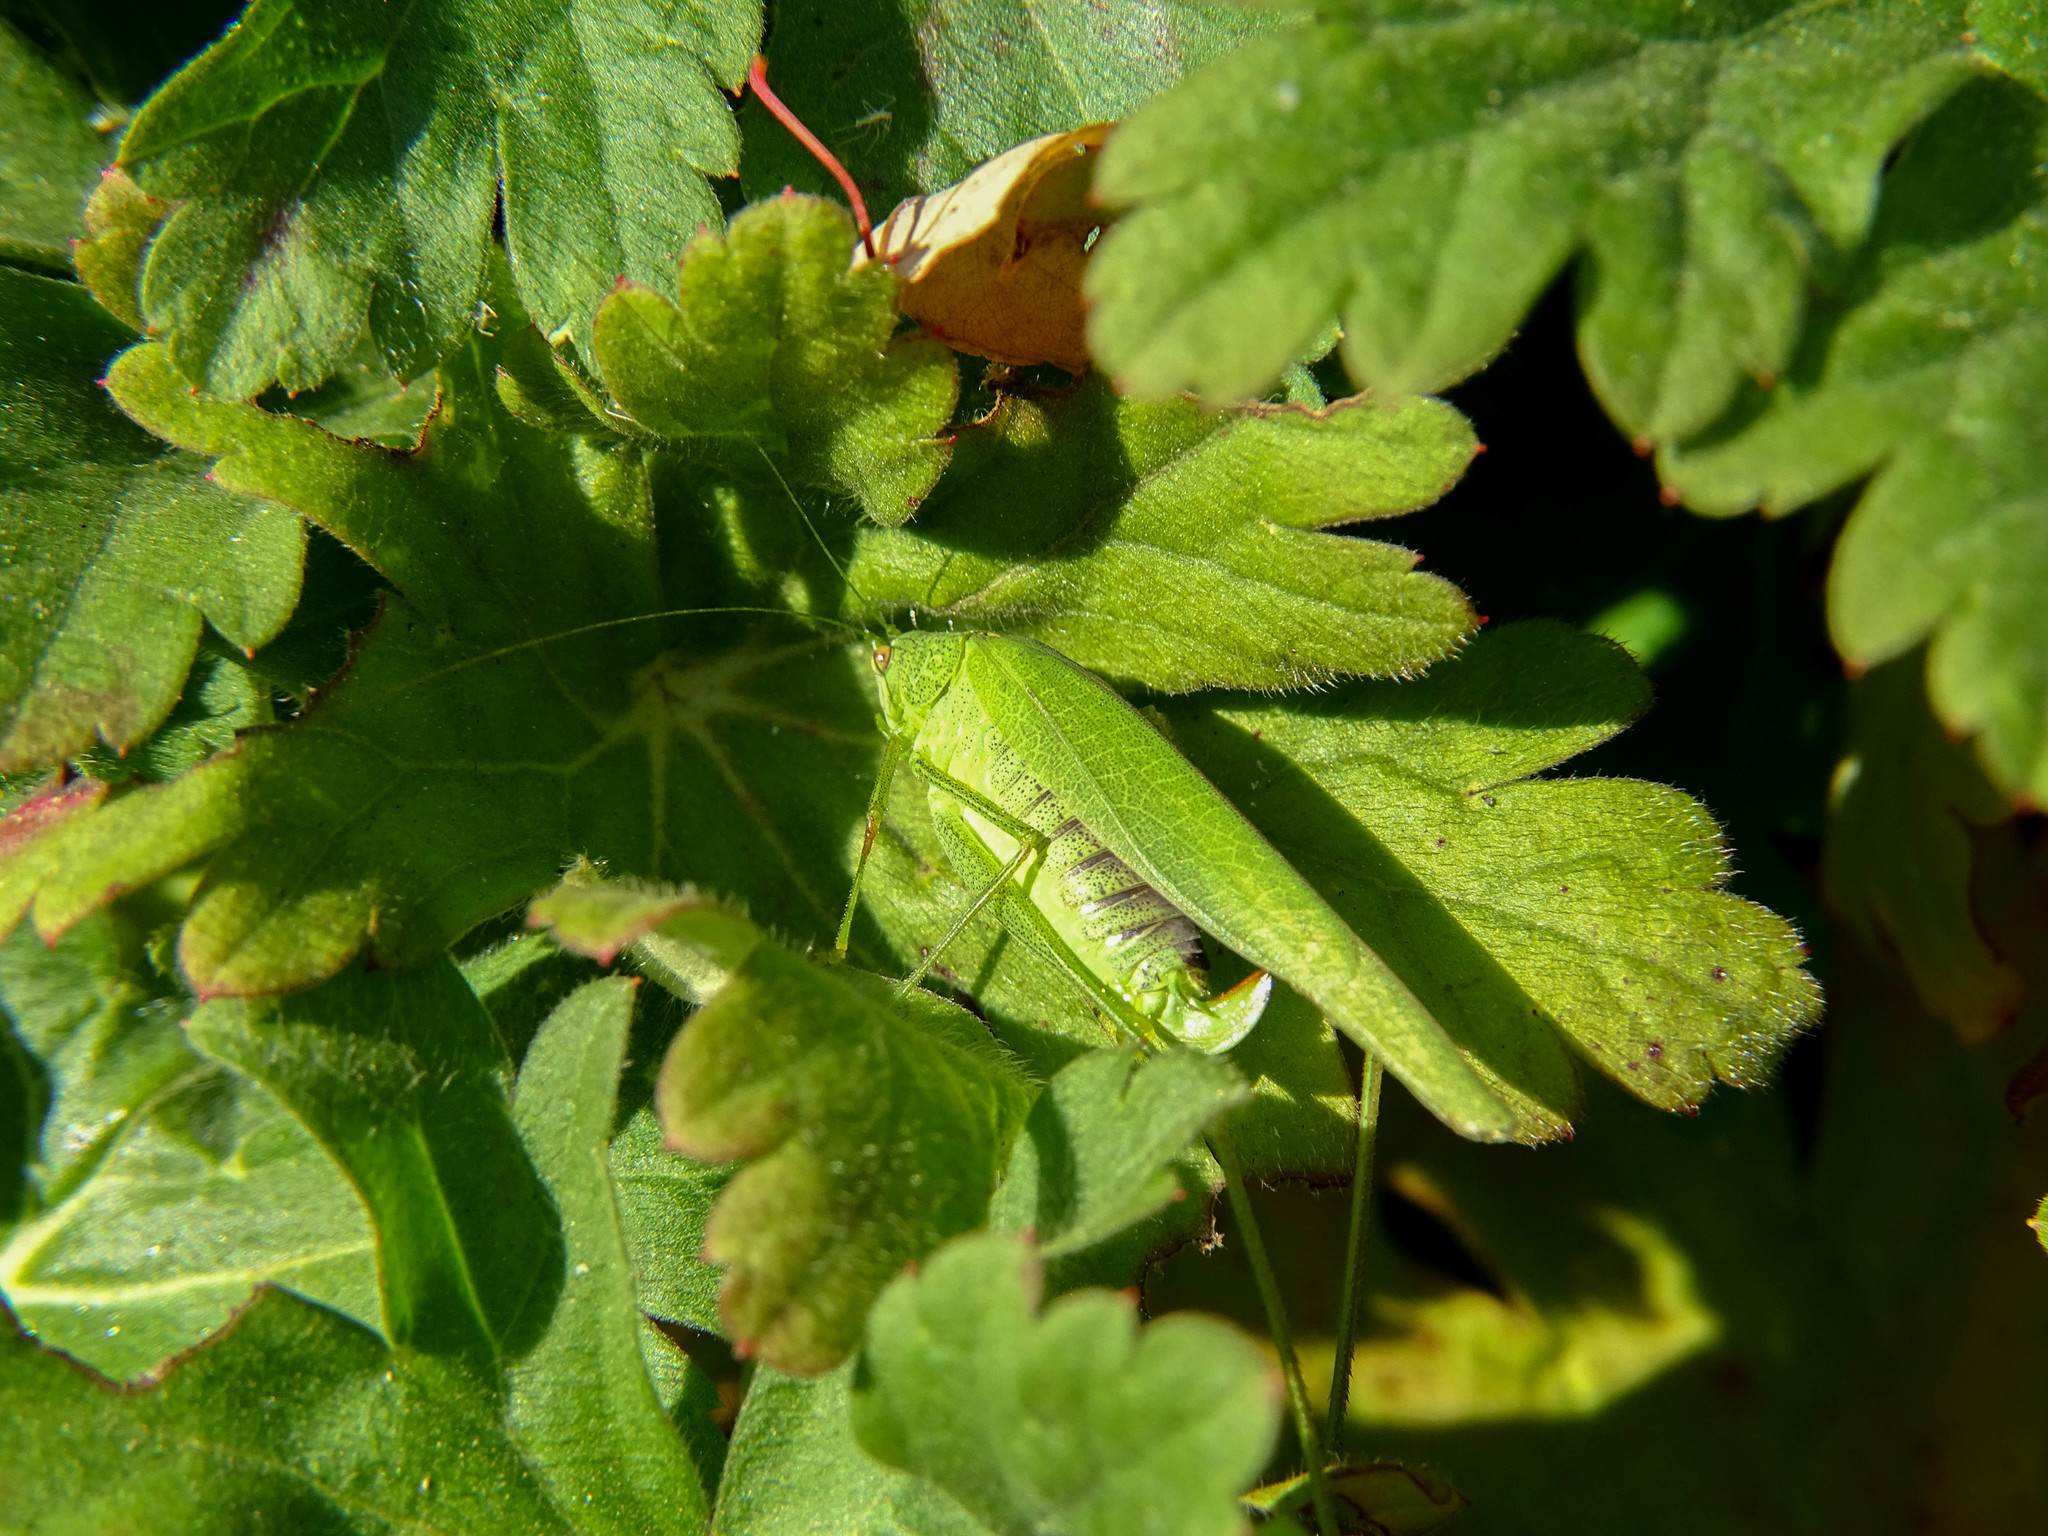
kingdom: Animalia
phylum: Arthropoda
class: Insecta
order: Orthoptera
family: Tettigoniidae
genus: Phaneroptera
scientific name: Phaneroptera nana
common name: Southern sickle bush-cricket
